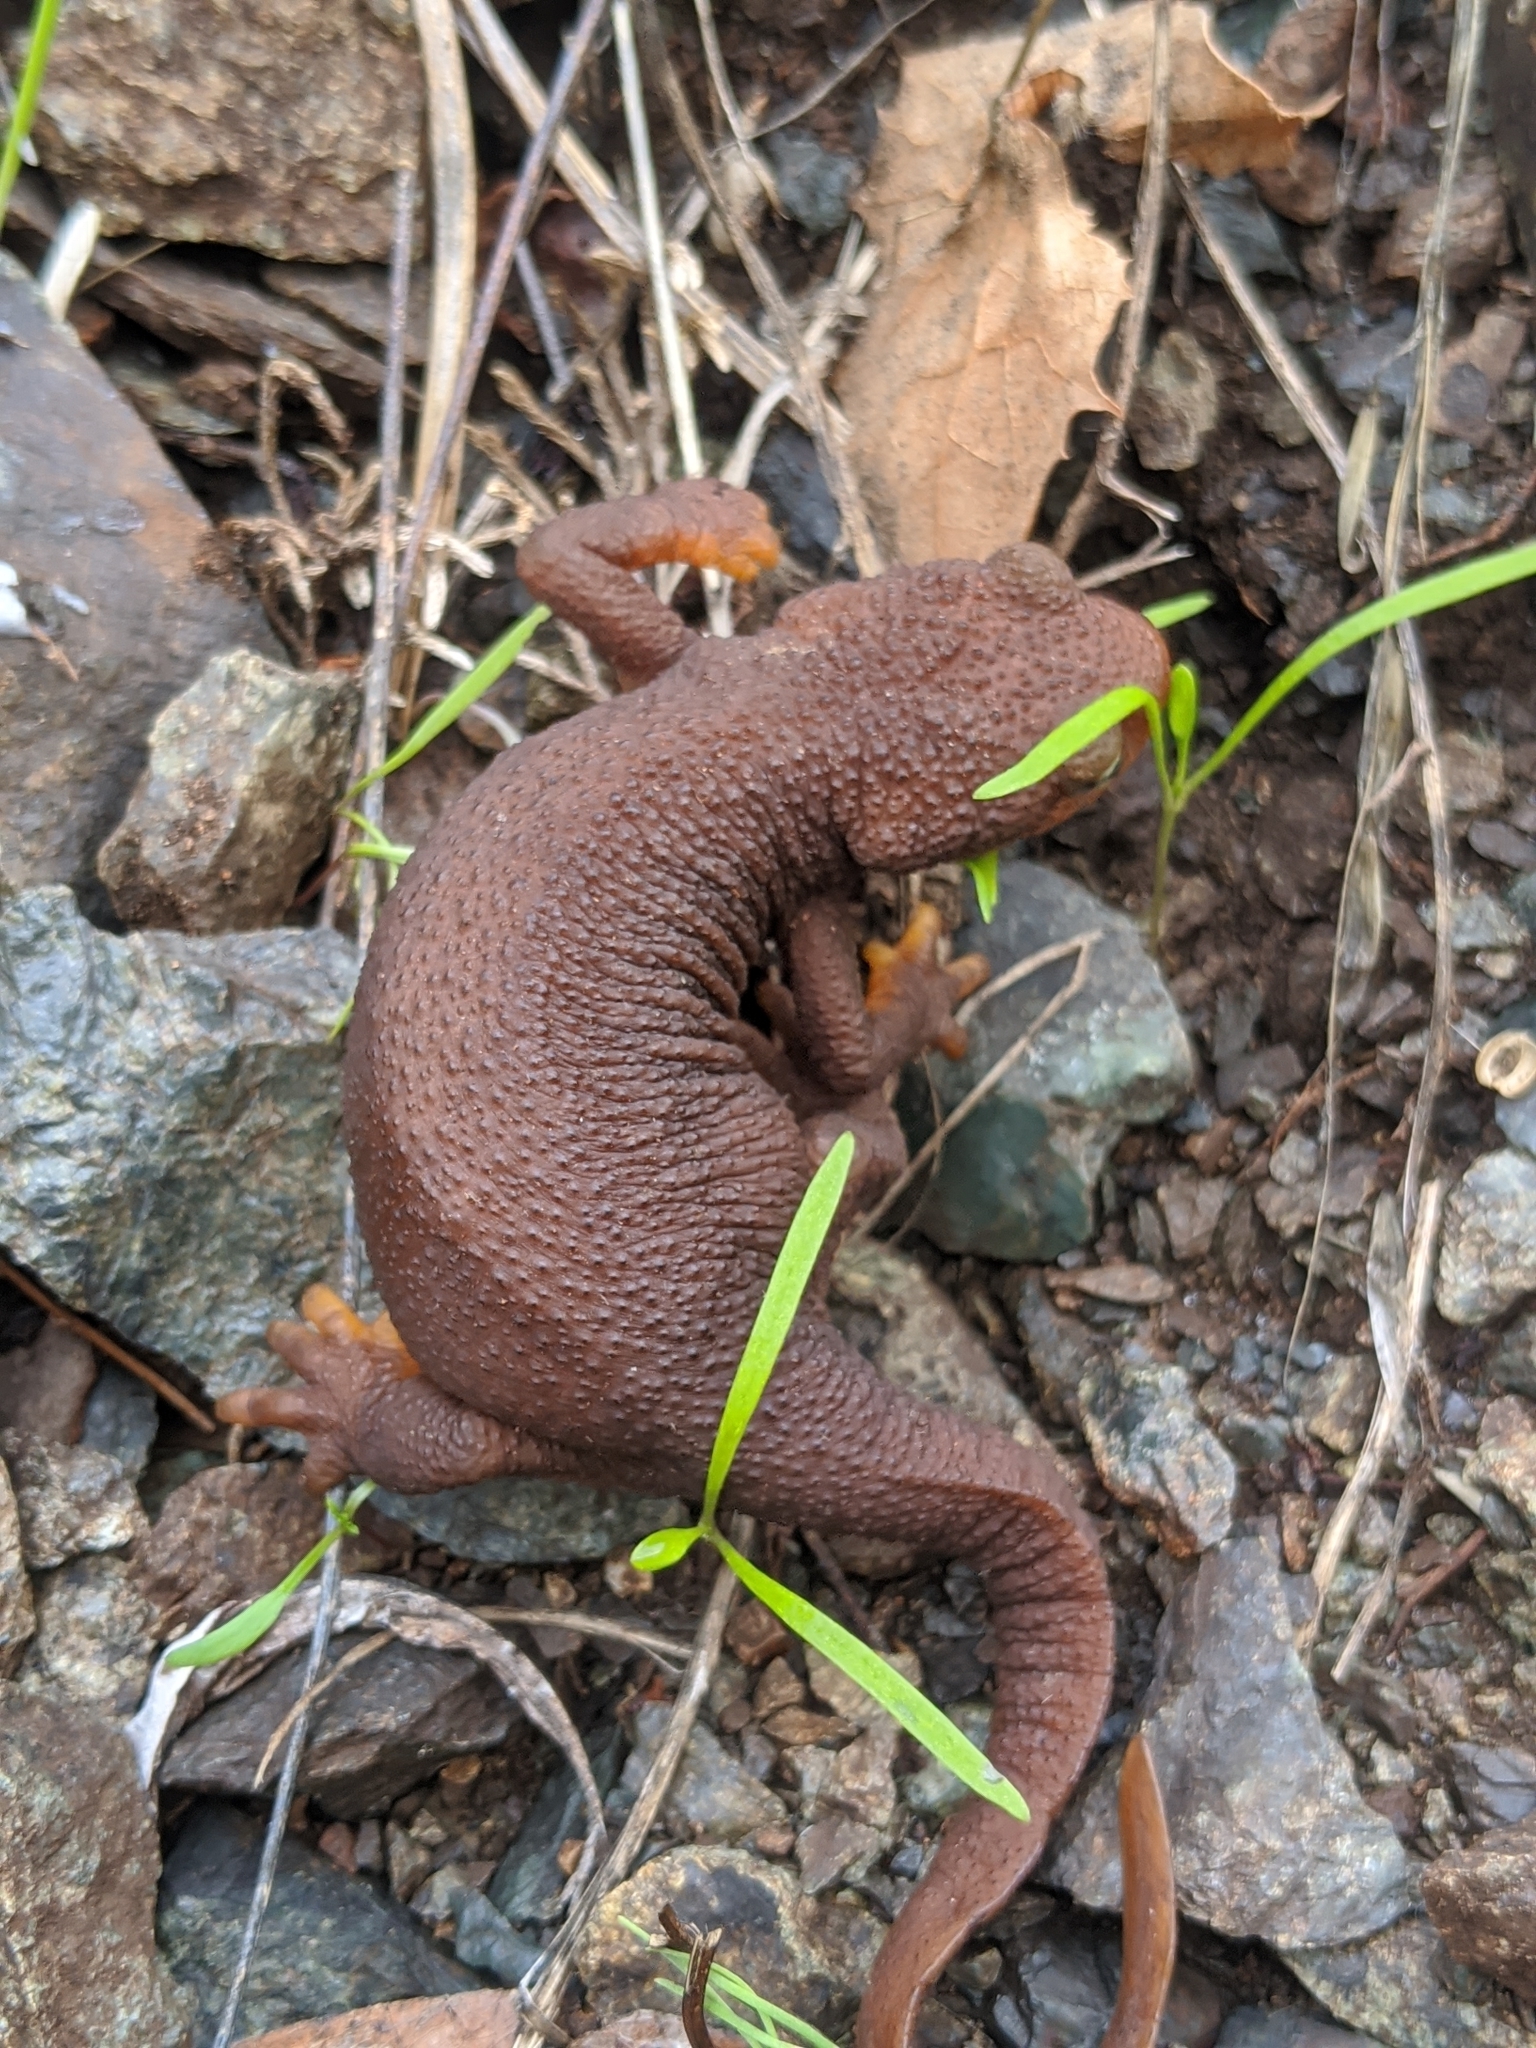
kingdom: Animalia
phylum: Chordata
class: Amphibia
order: Caudata
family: Salamandridae
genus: Taricha
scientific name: Taricha torosa
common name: California newt
